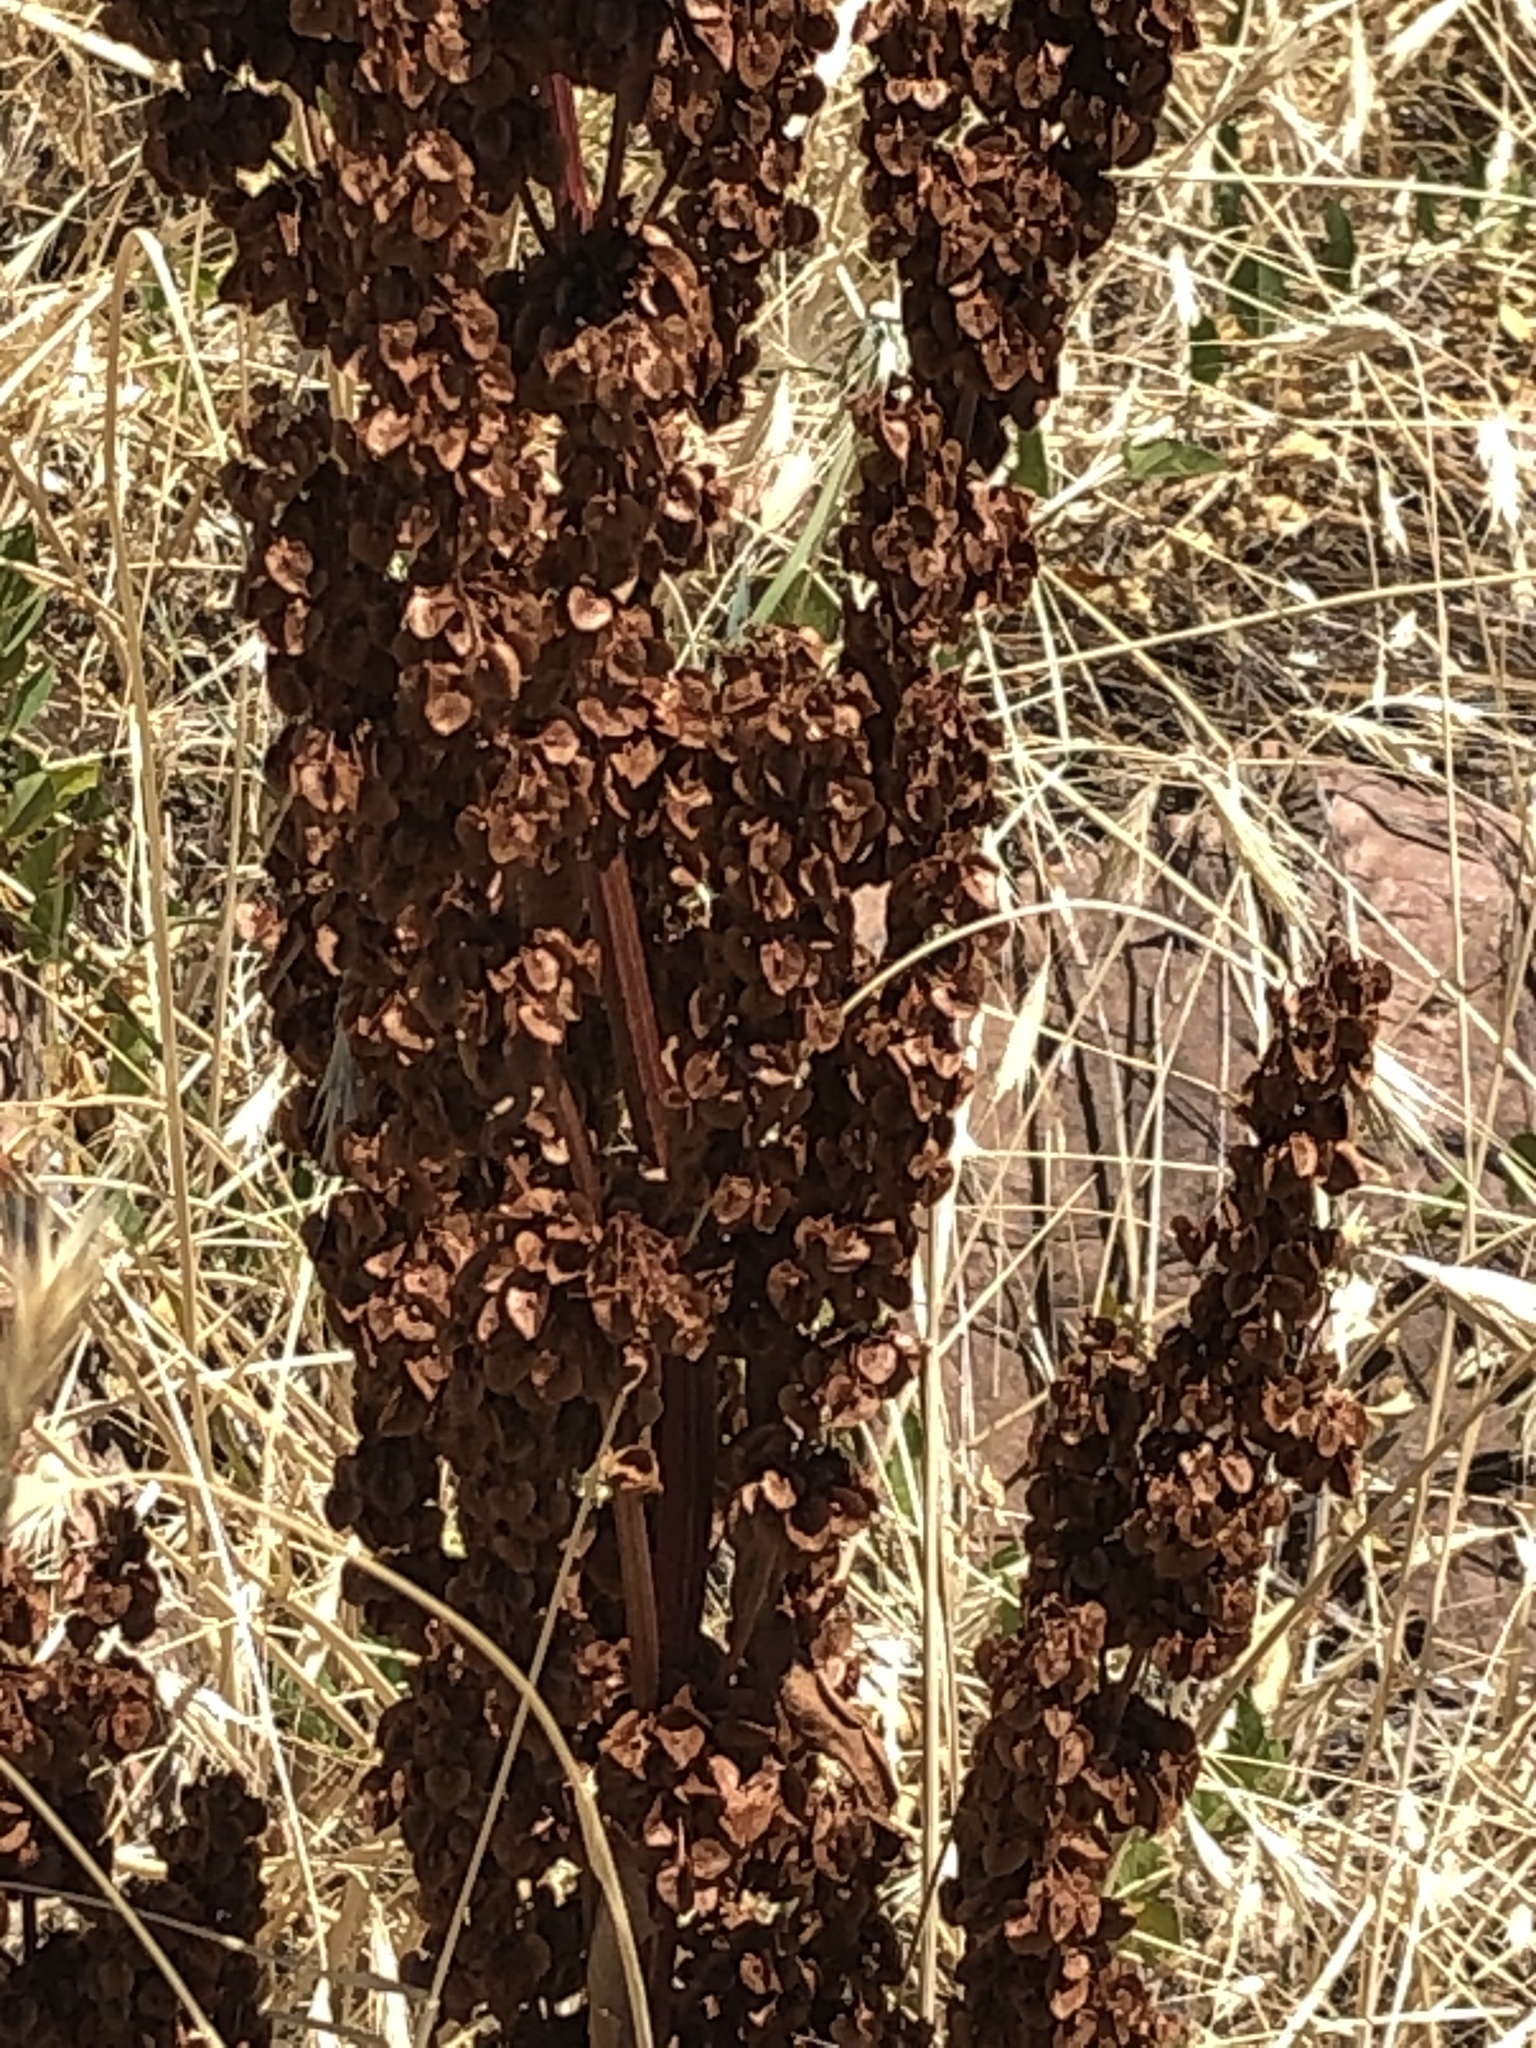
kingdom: Plantae
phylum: Tracheophyta
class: Magnoliopsida
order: Caryophyllales
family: Polygonaceae
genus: Rumex
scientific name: Rumex crispus
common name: Curled dock
